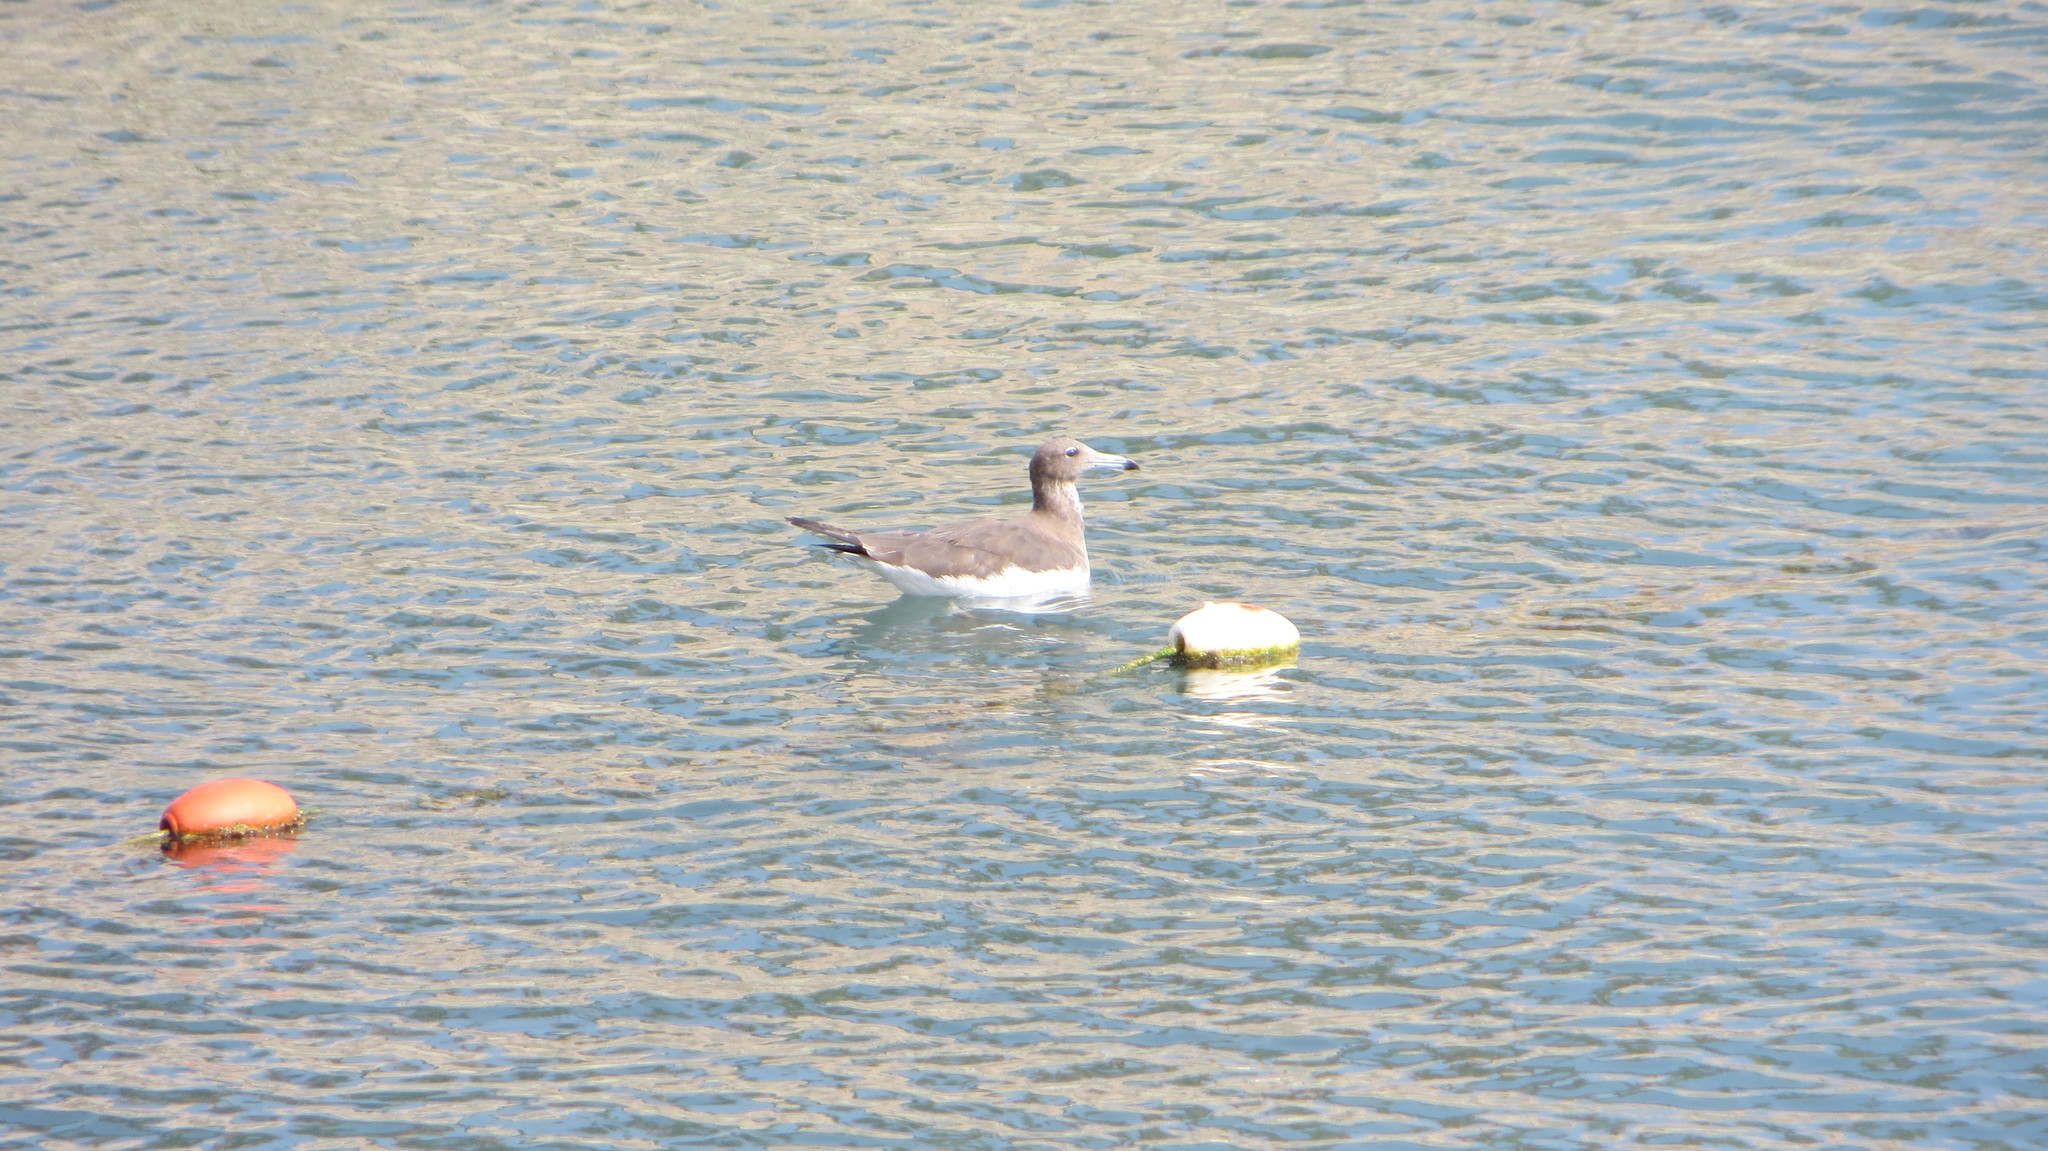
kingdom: Animalia
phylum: Chordata
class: Aves
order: Charadriiformes
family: Laridae
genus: Ichthyaetus
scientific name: Ichthyaetus hemprichii
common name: Sooty gull
